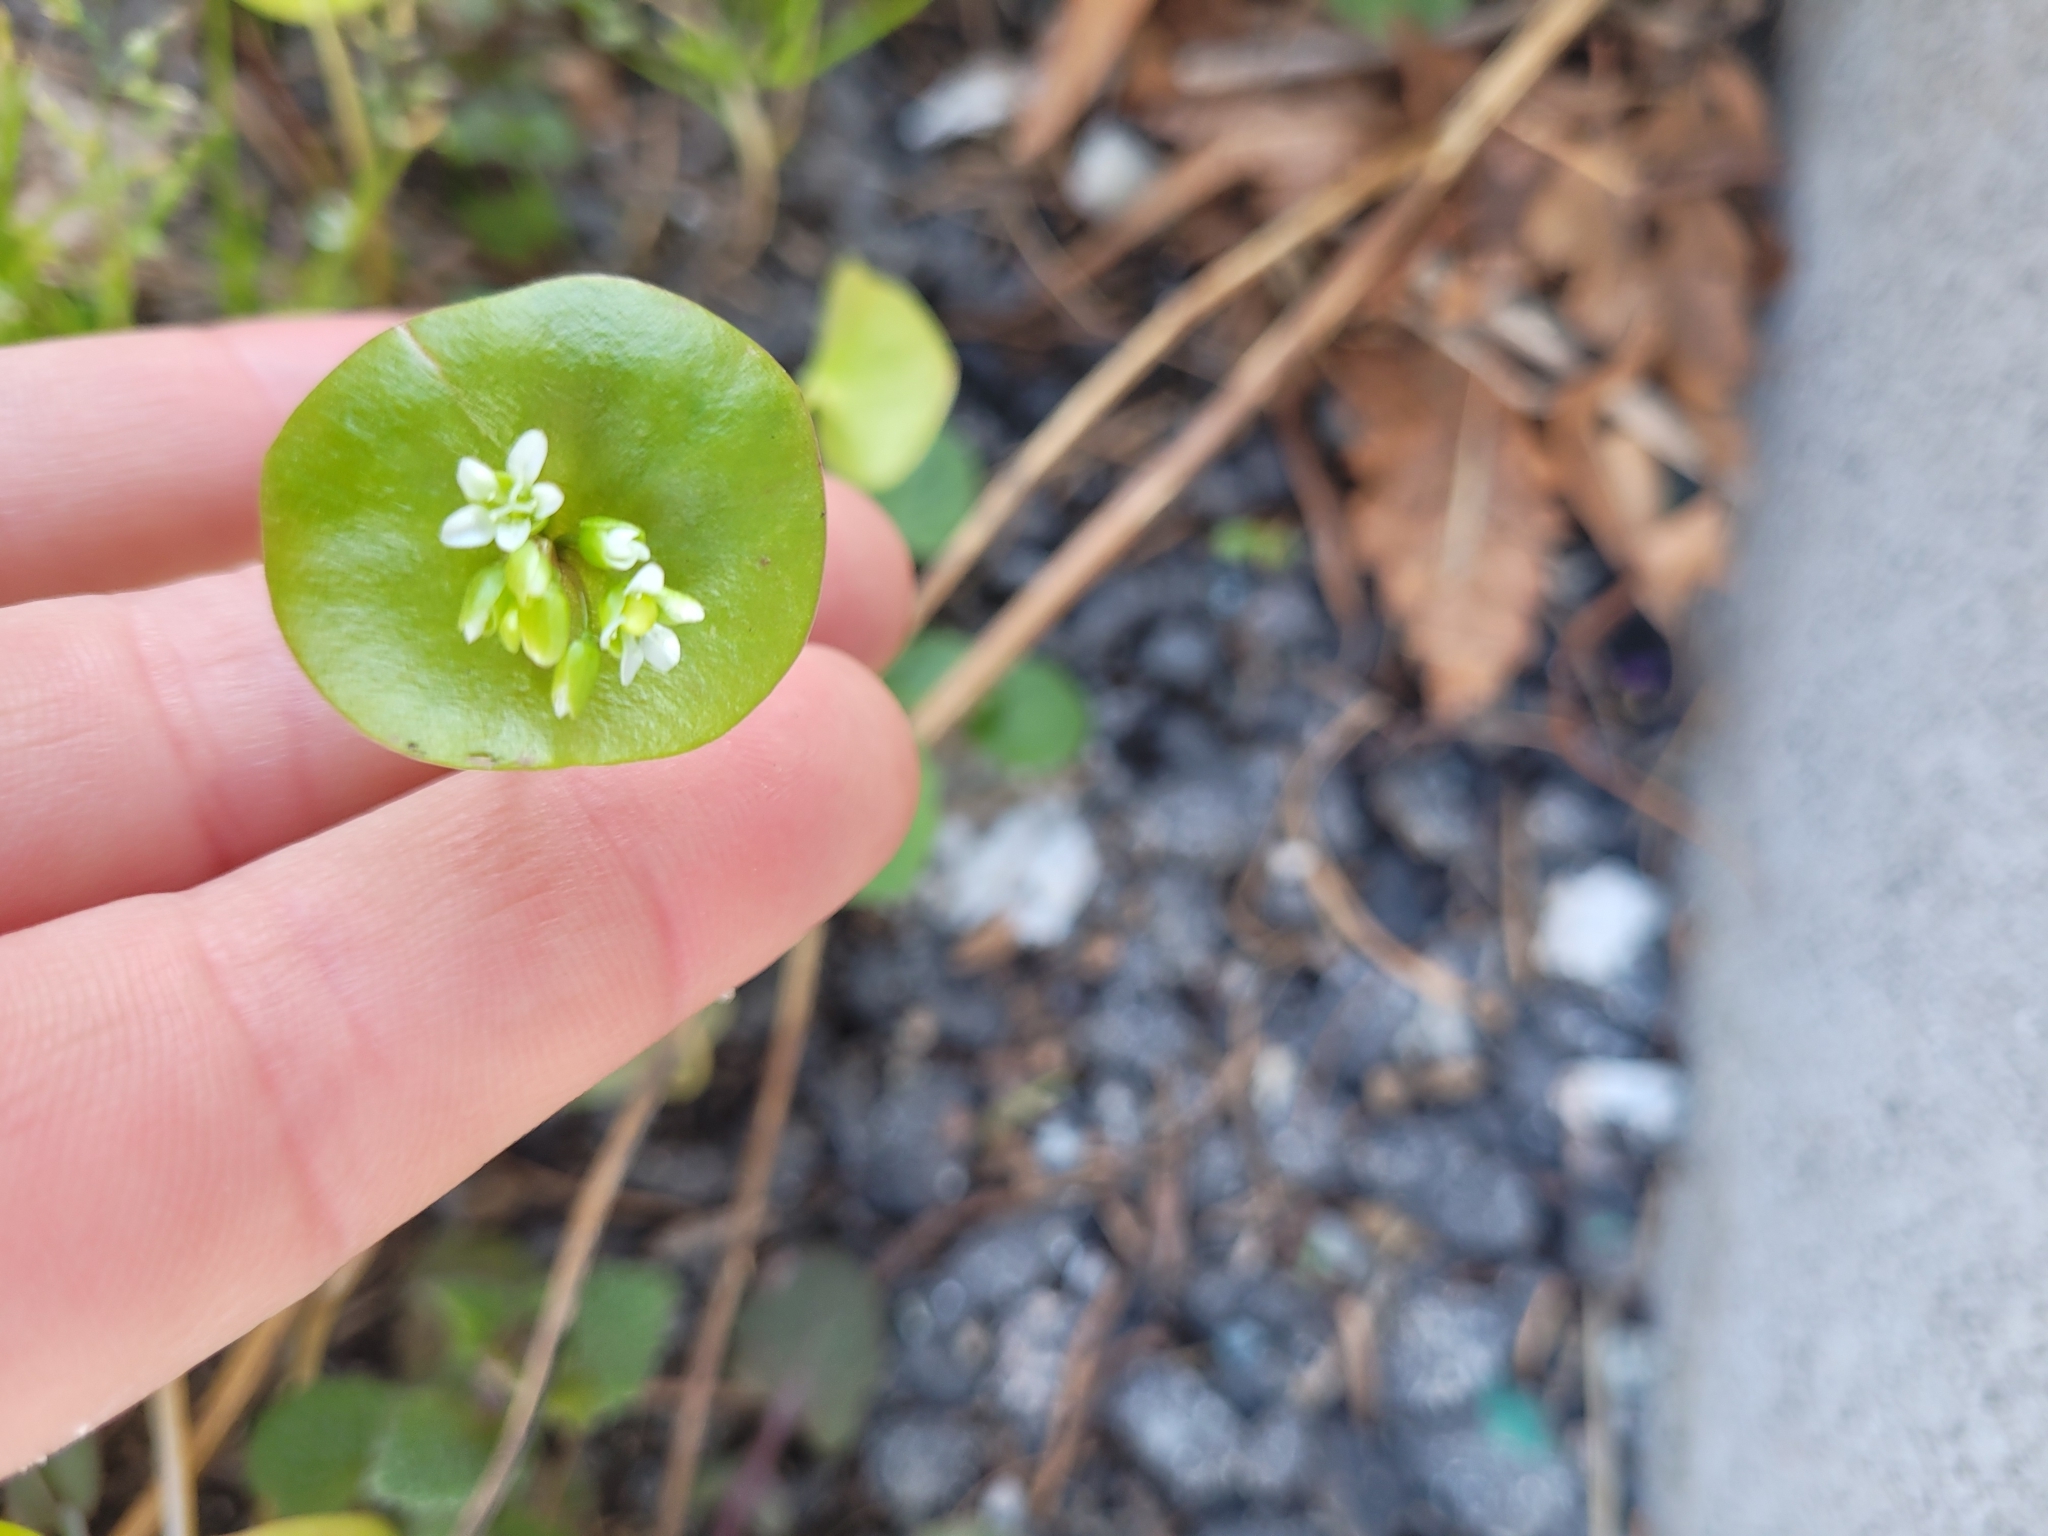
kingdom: Plantae
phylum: Tracheophyta
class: Magnoliopsida
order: Caryophyllales
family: Montiaceae
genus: Claytonia
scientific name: Claytonia perfoliata
